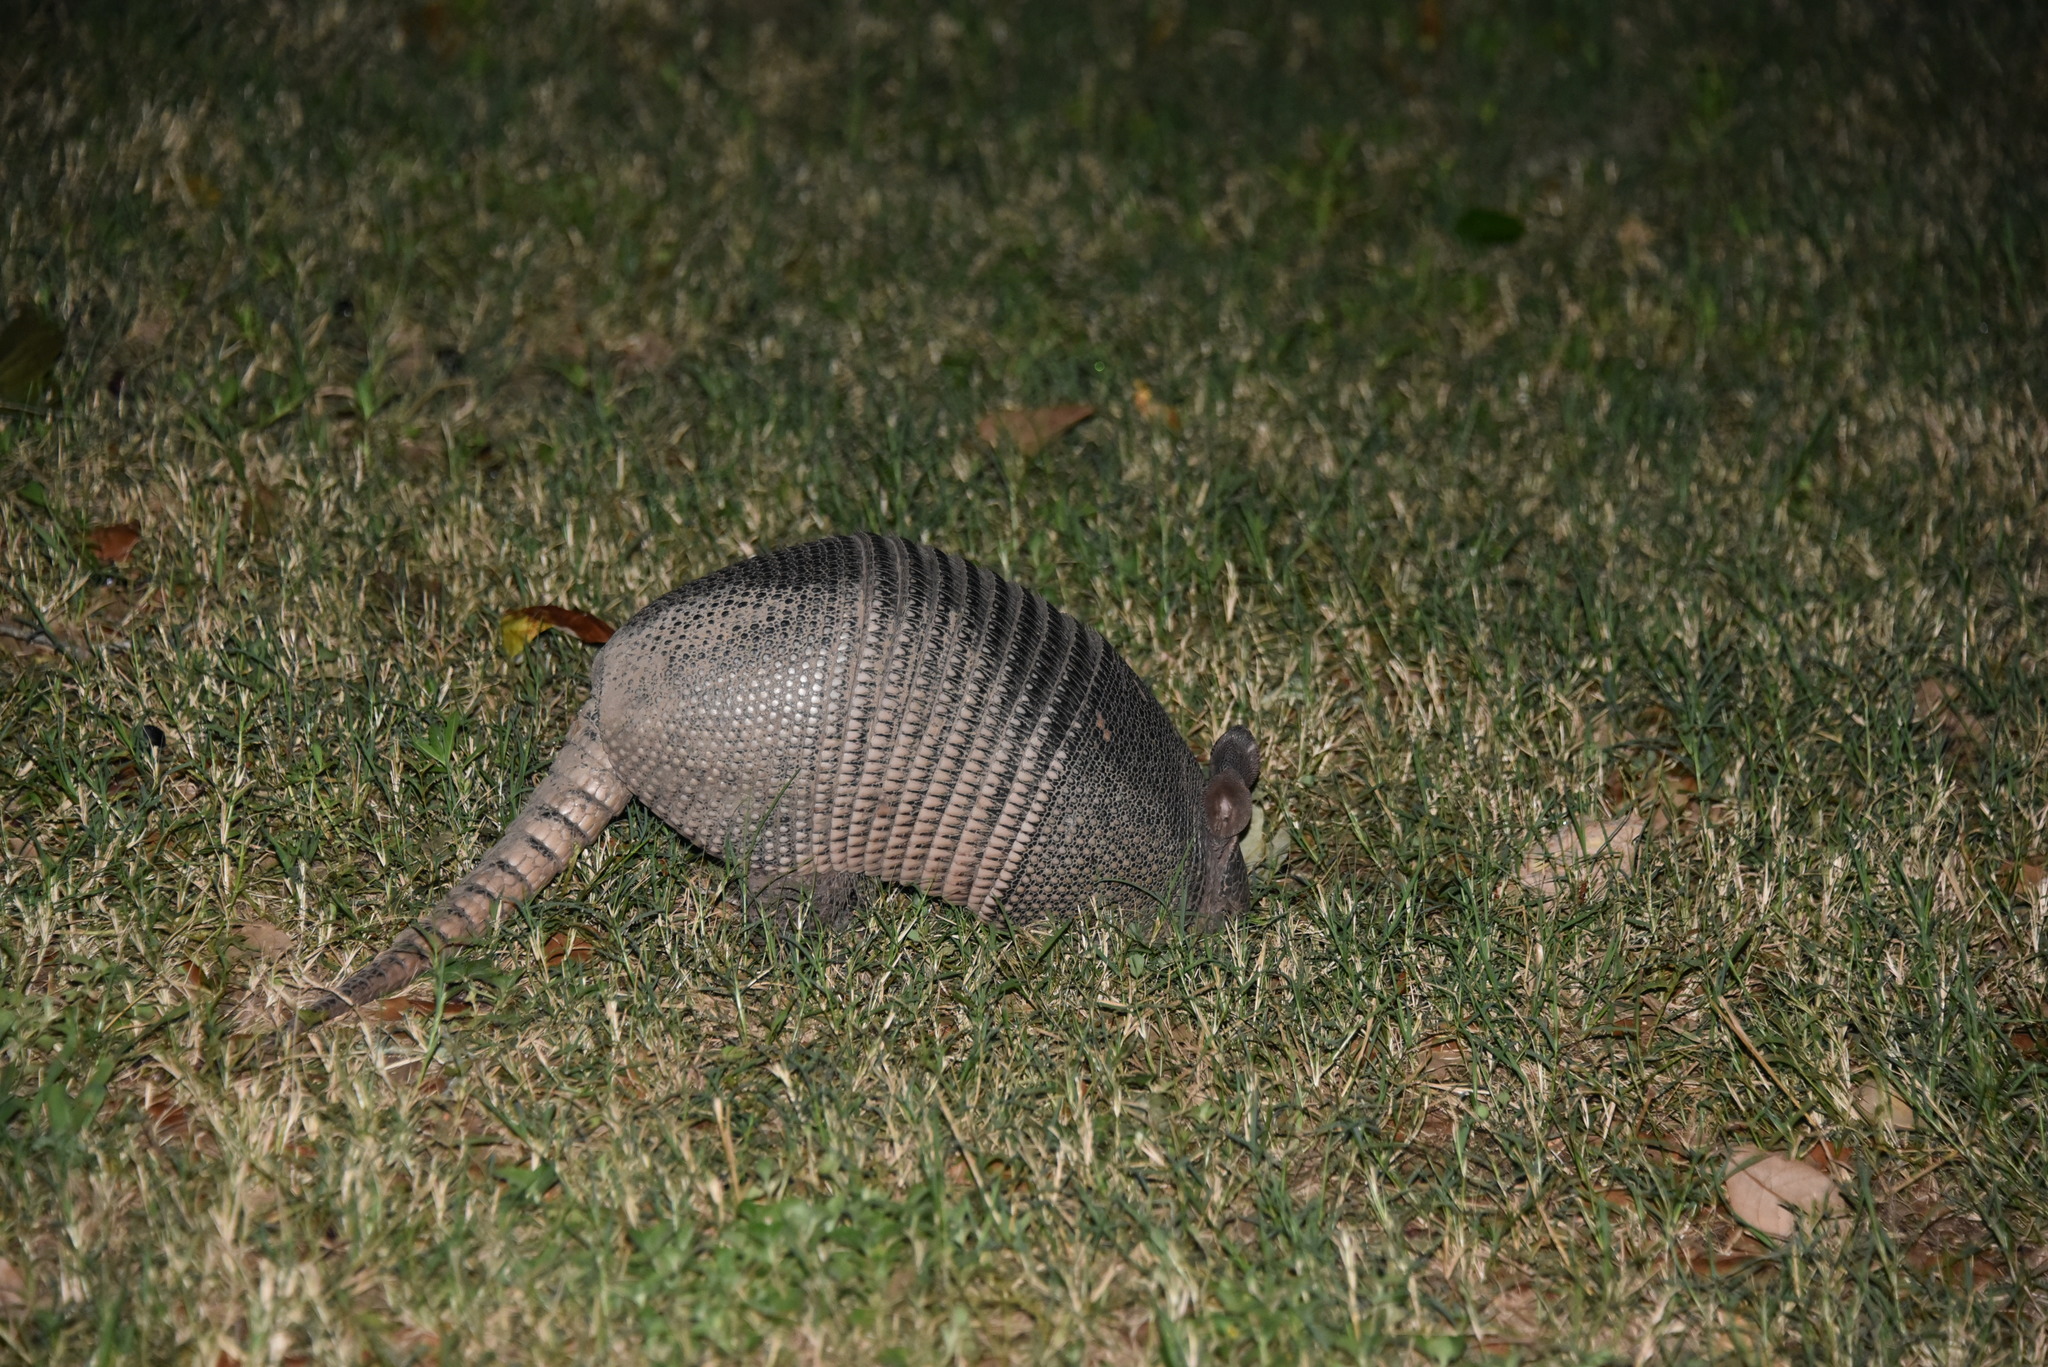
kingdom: Animalia
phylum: Chordata
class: Mammalia
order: Cingulata
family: Dasypodidae
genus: Dasypus
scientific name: Dasypus novemcinctus
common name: Nine-banded armadillo
